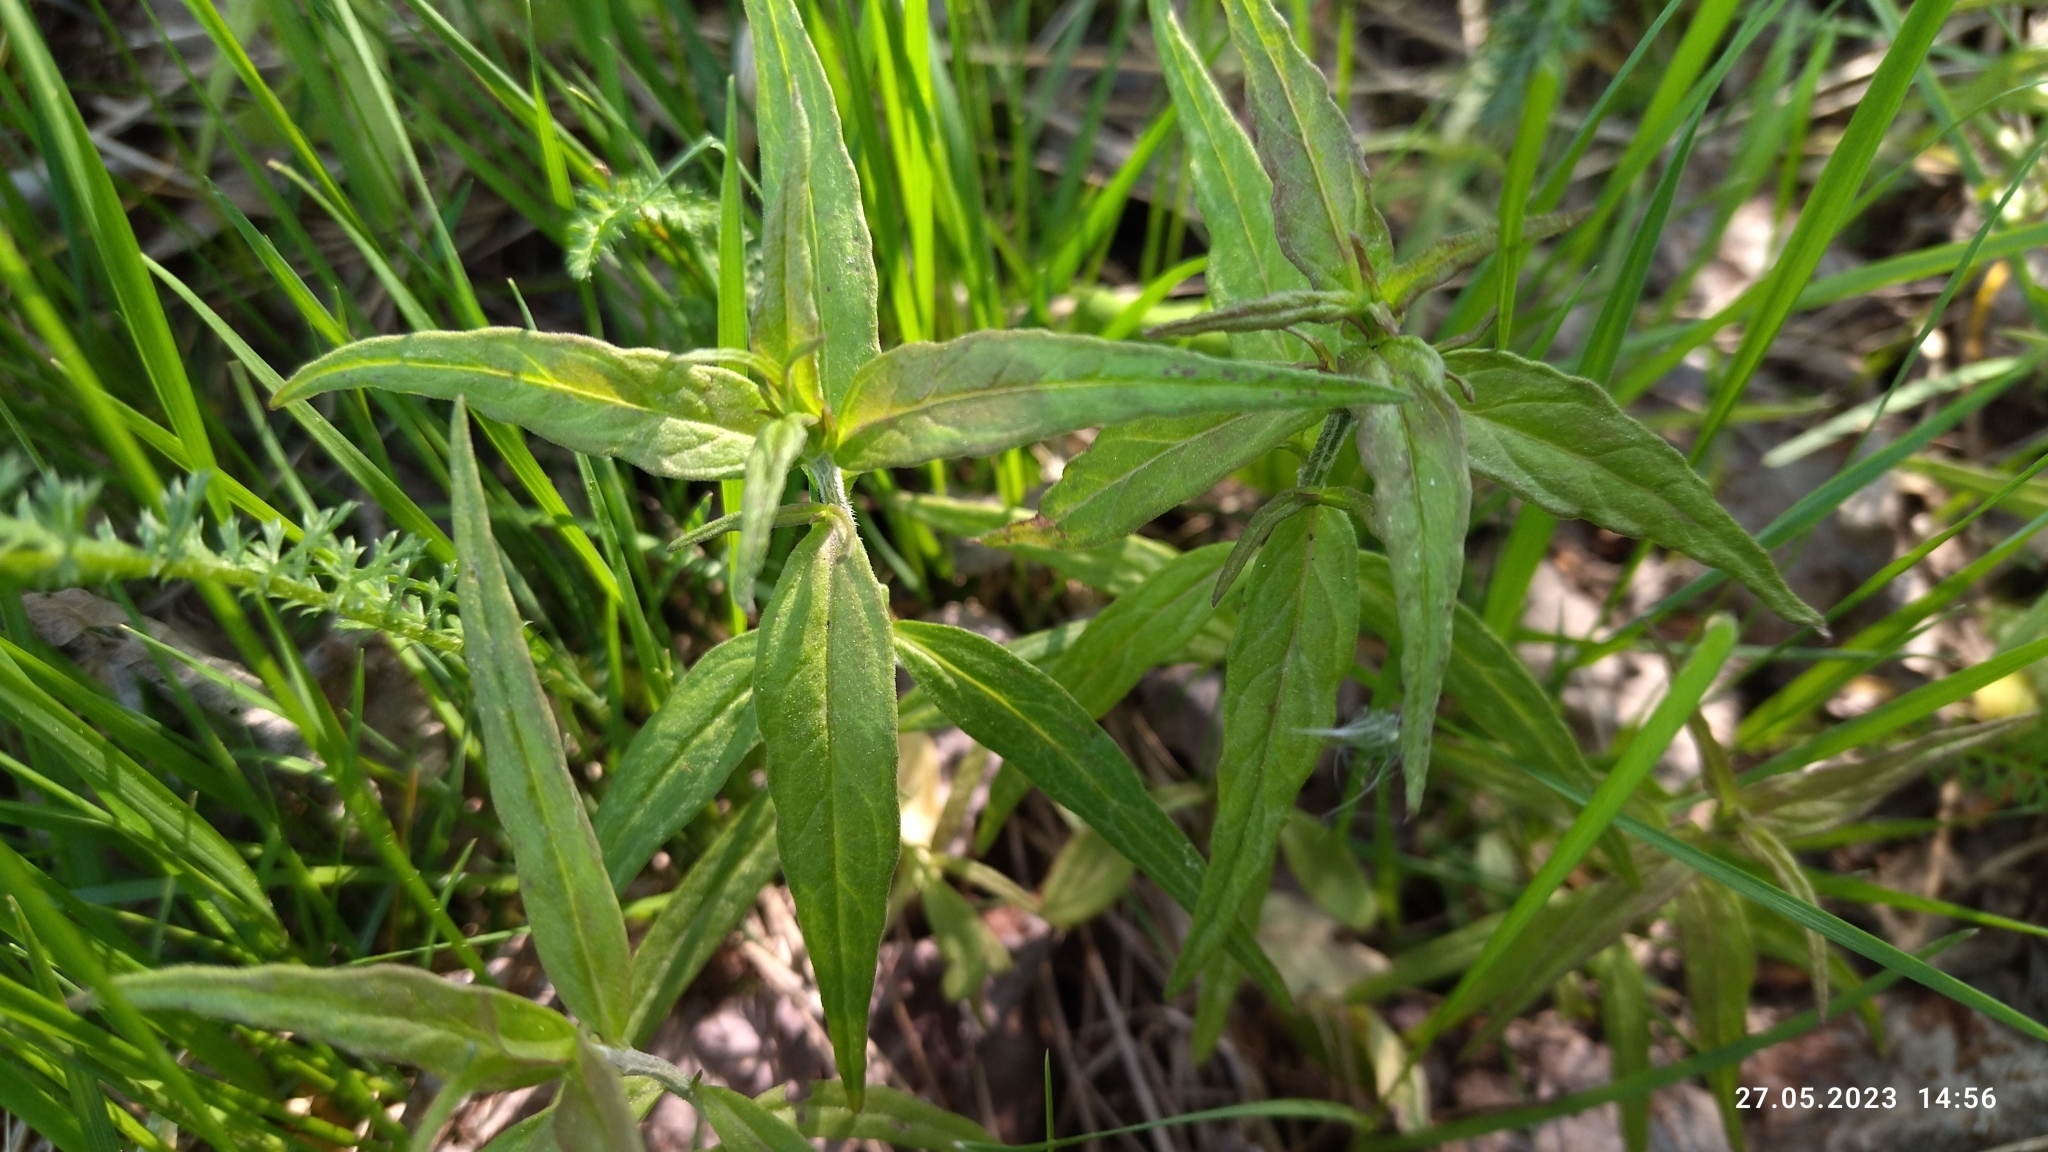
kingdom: Plantae
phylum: Tracheophyta
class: Magnoliopsida
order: Lamiales
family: Orobanchaceae
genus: Melampyrum
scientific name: Melampyrum nemorosum
